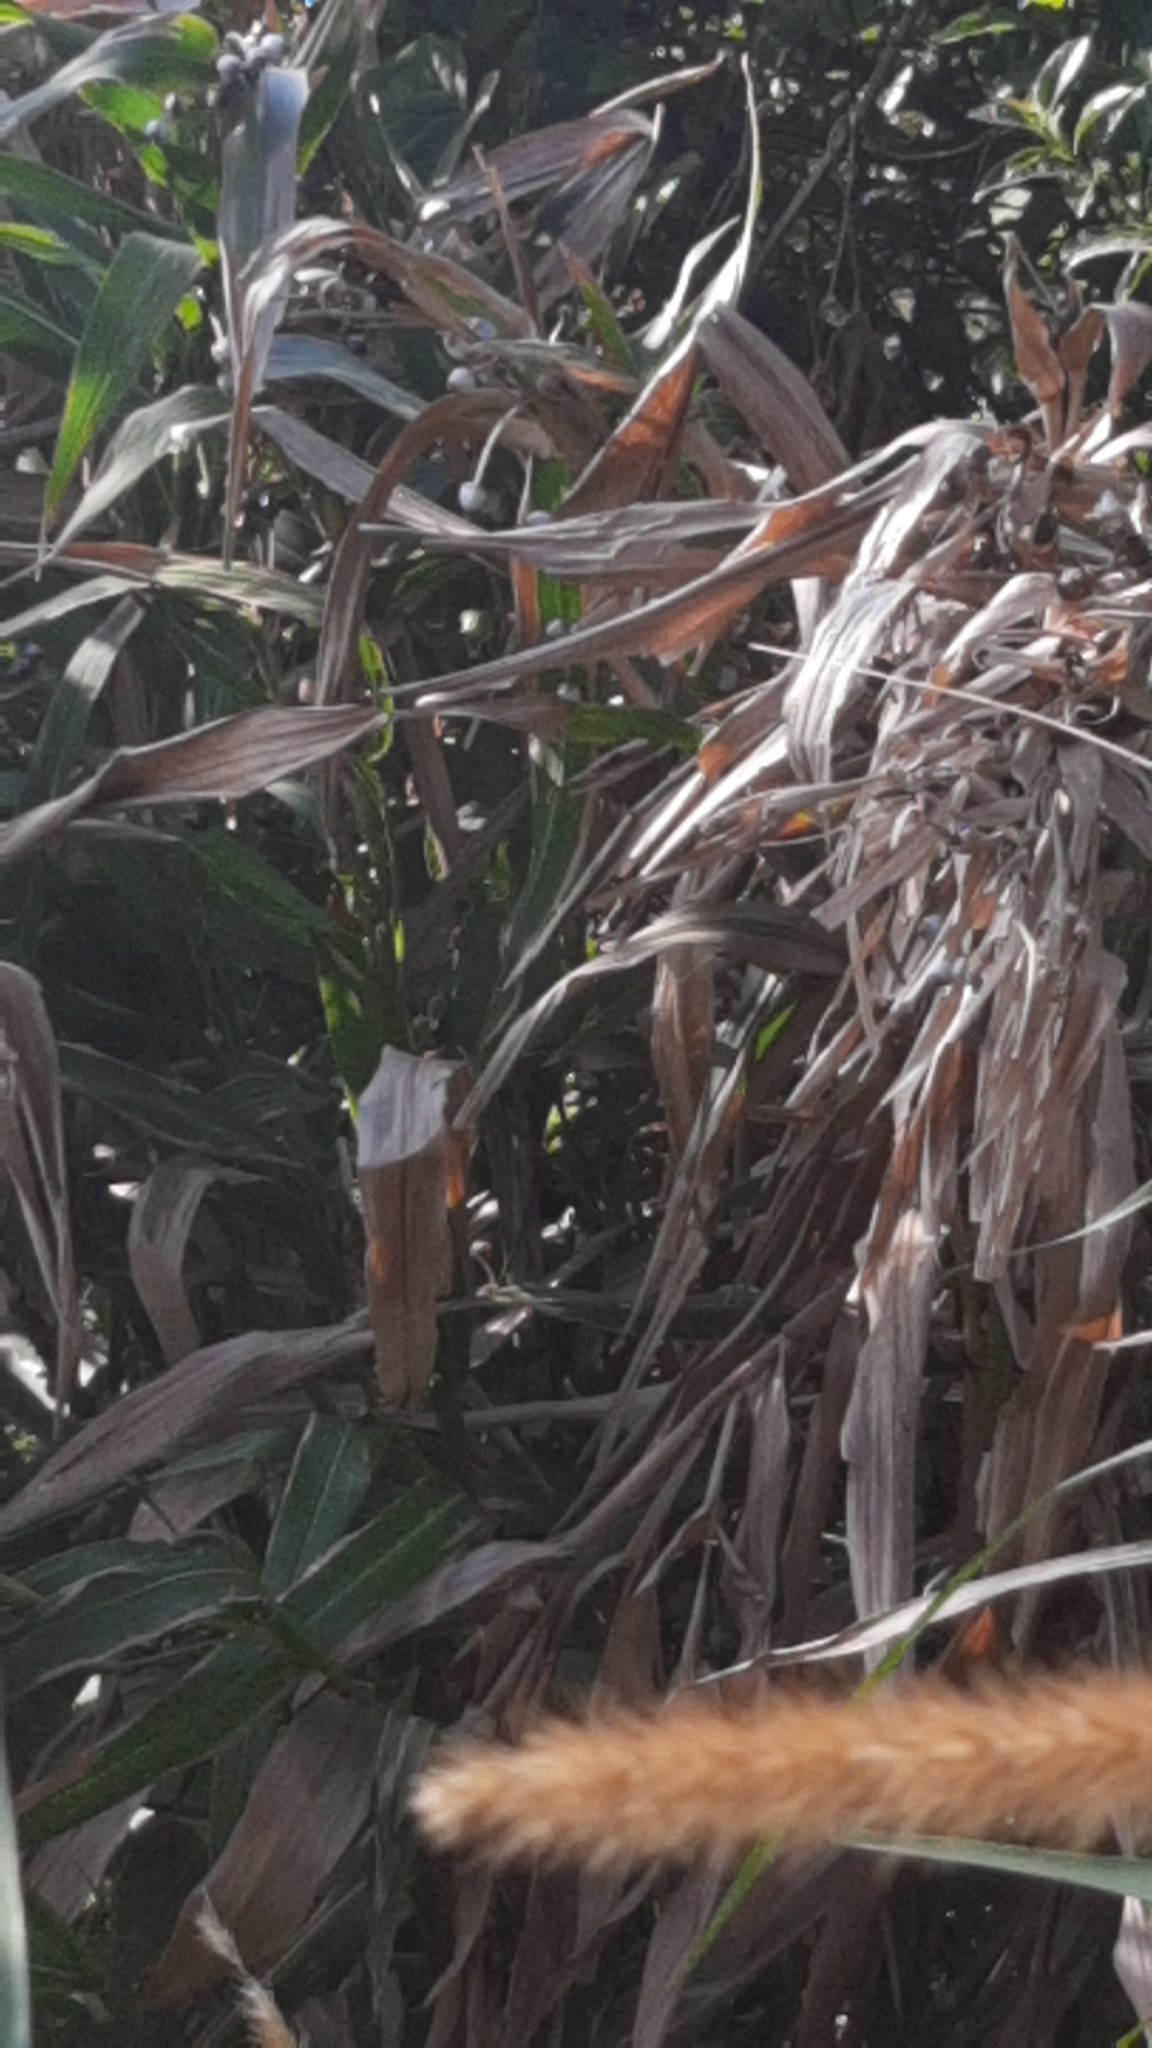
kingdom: Plantae
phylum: Tracheophyta
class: Liliopsida
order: Poales
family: Poaceae
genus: Coix
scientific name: Coix lacryma-jobi
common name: Job's tears
